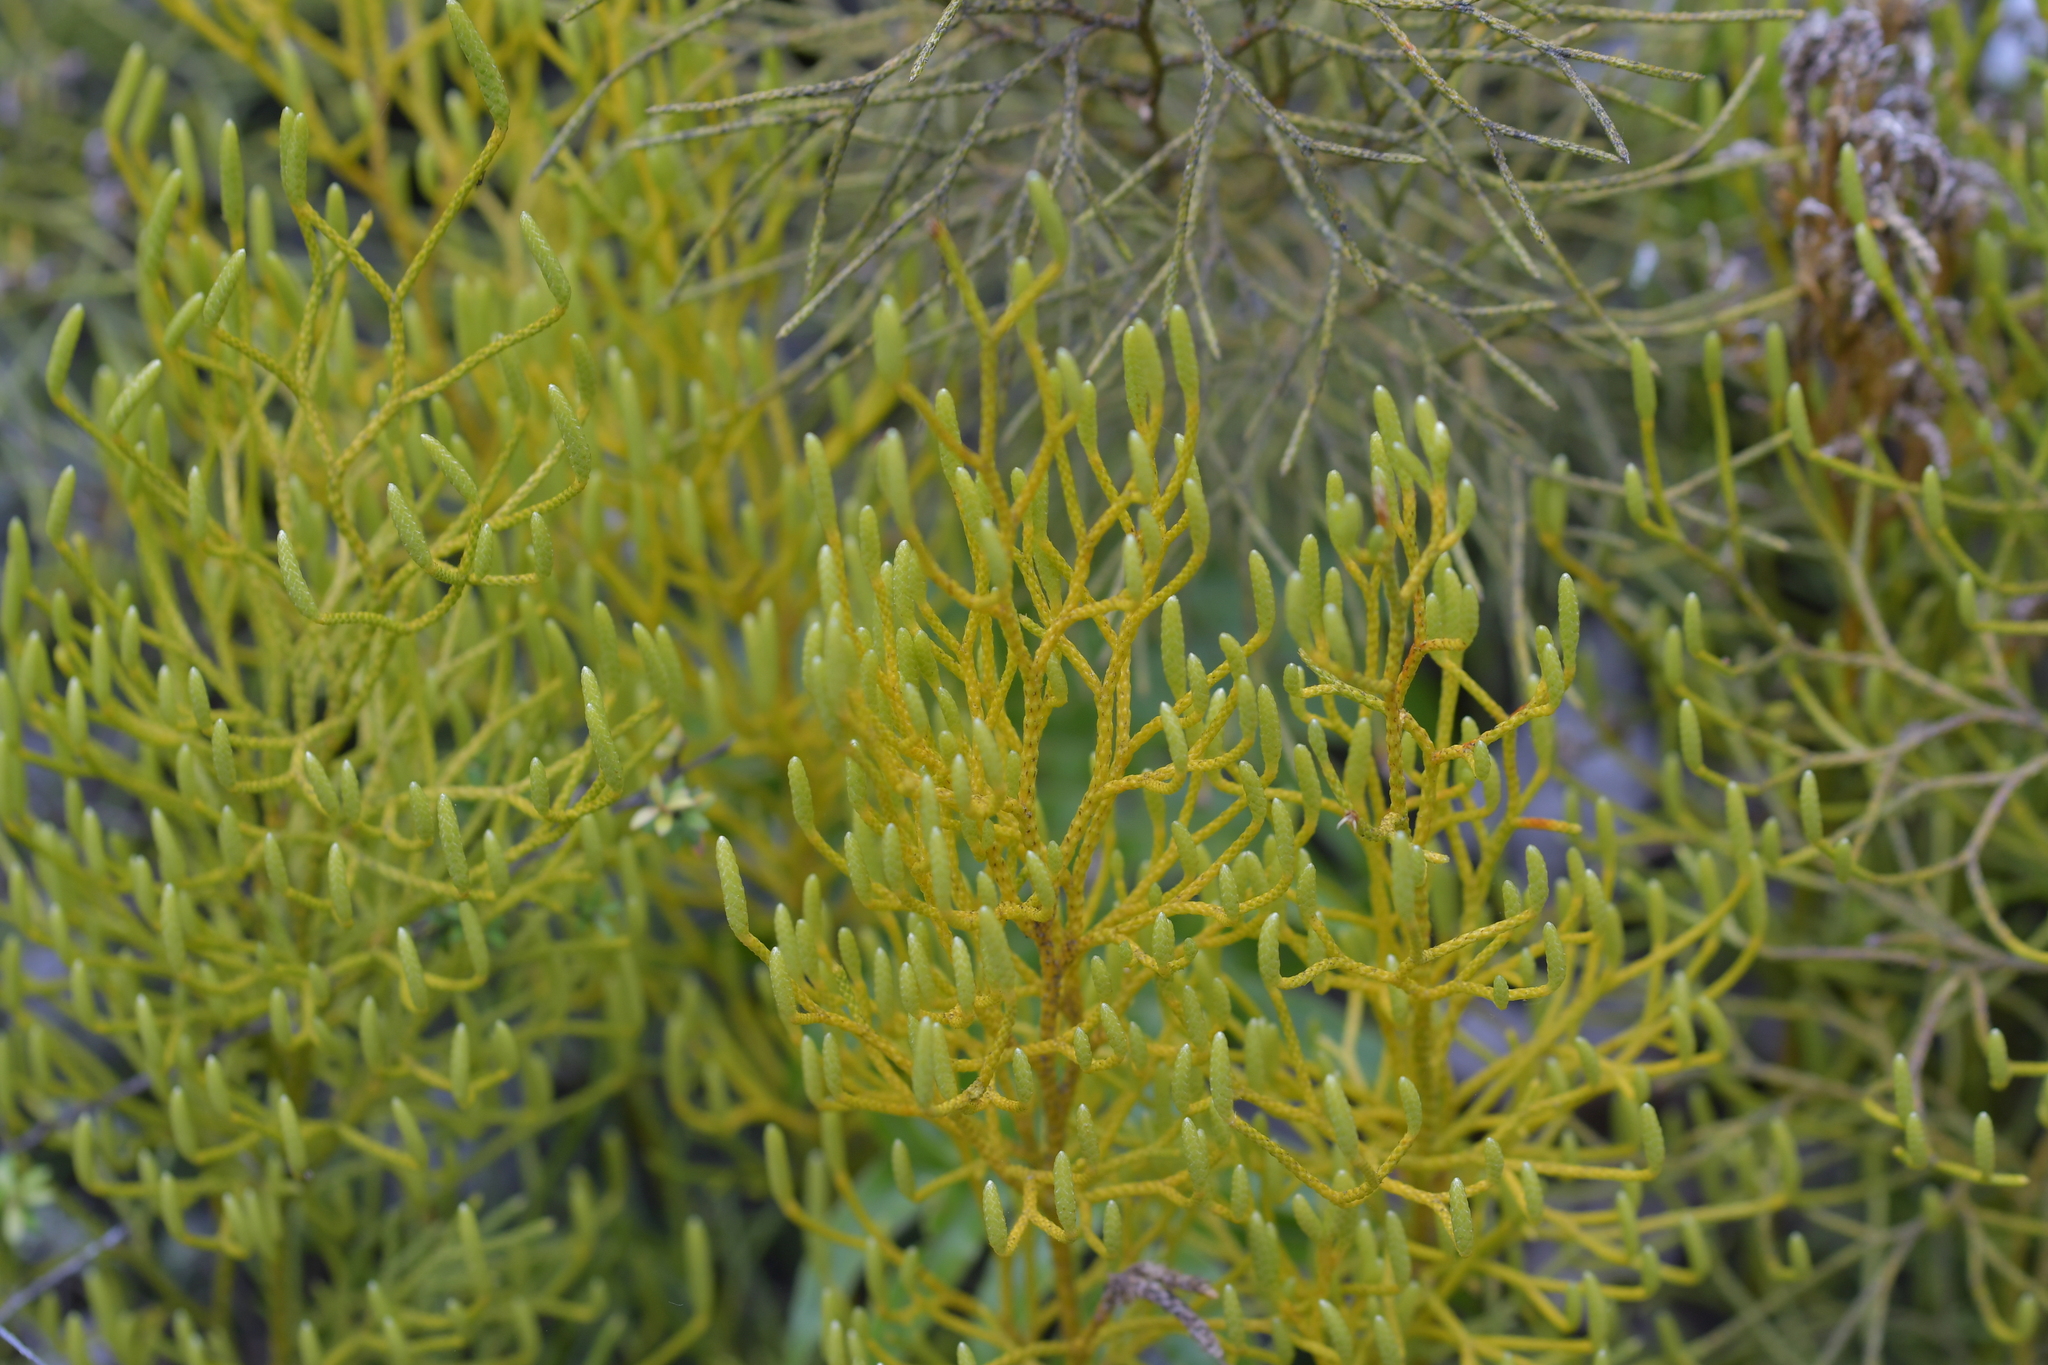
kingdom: Plantae
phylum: Tracheophyta
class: Lycopodiopsida
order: Lycopodiales
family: Lycopodiaceae
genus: Pseudolycopodium
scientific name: Pseudolycopodium densum
